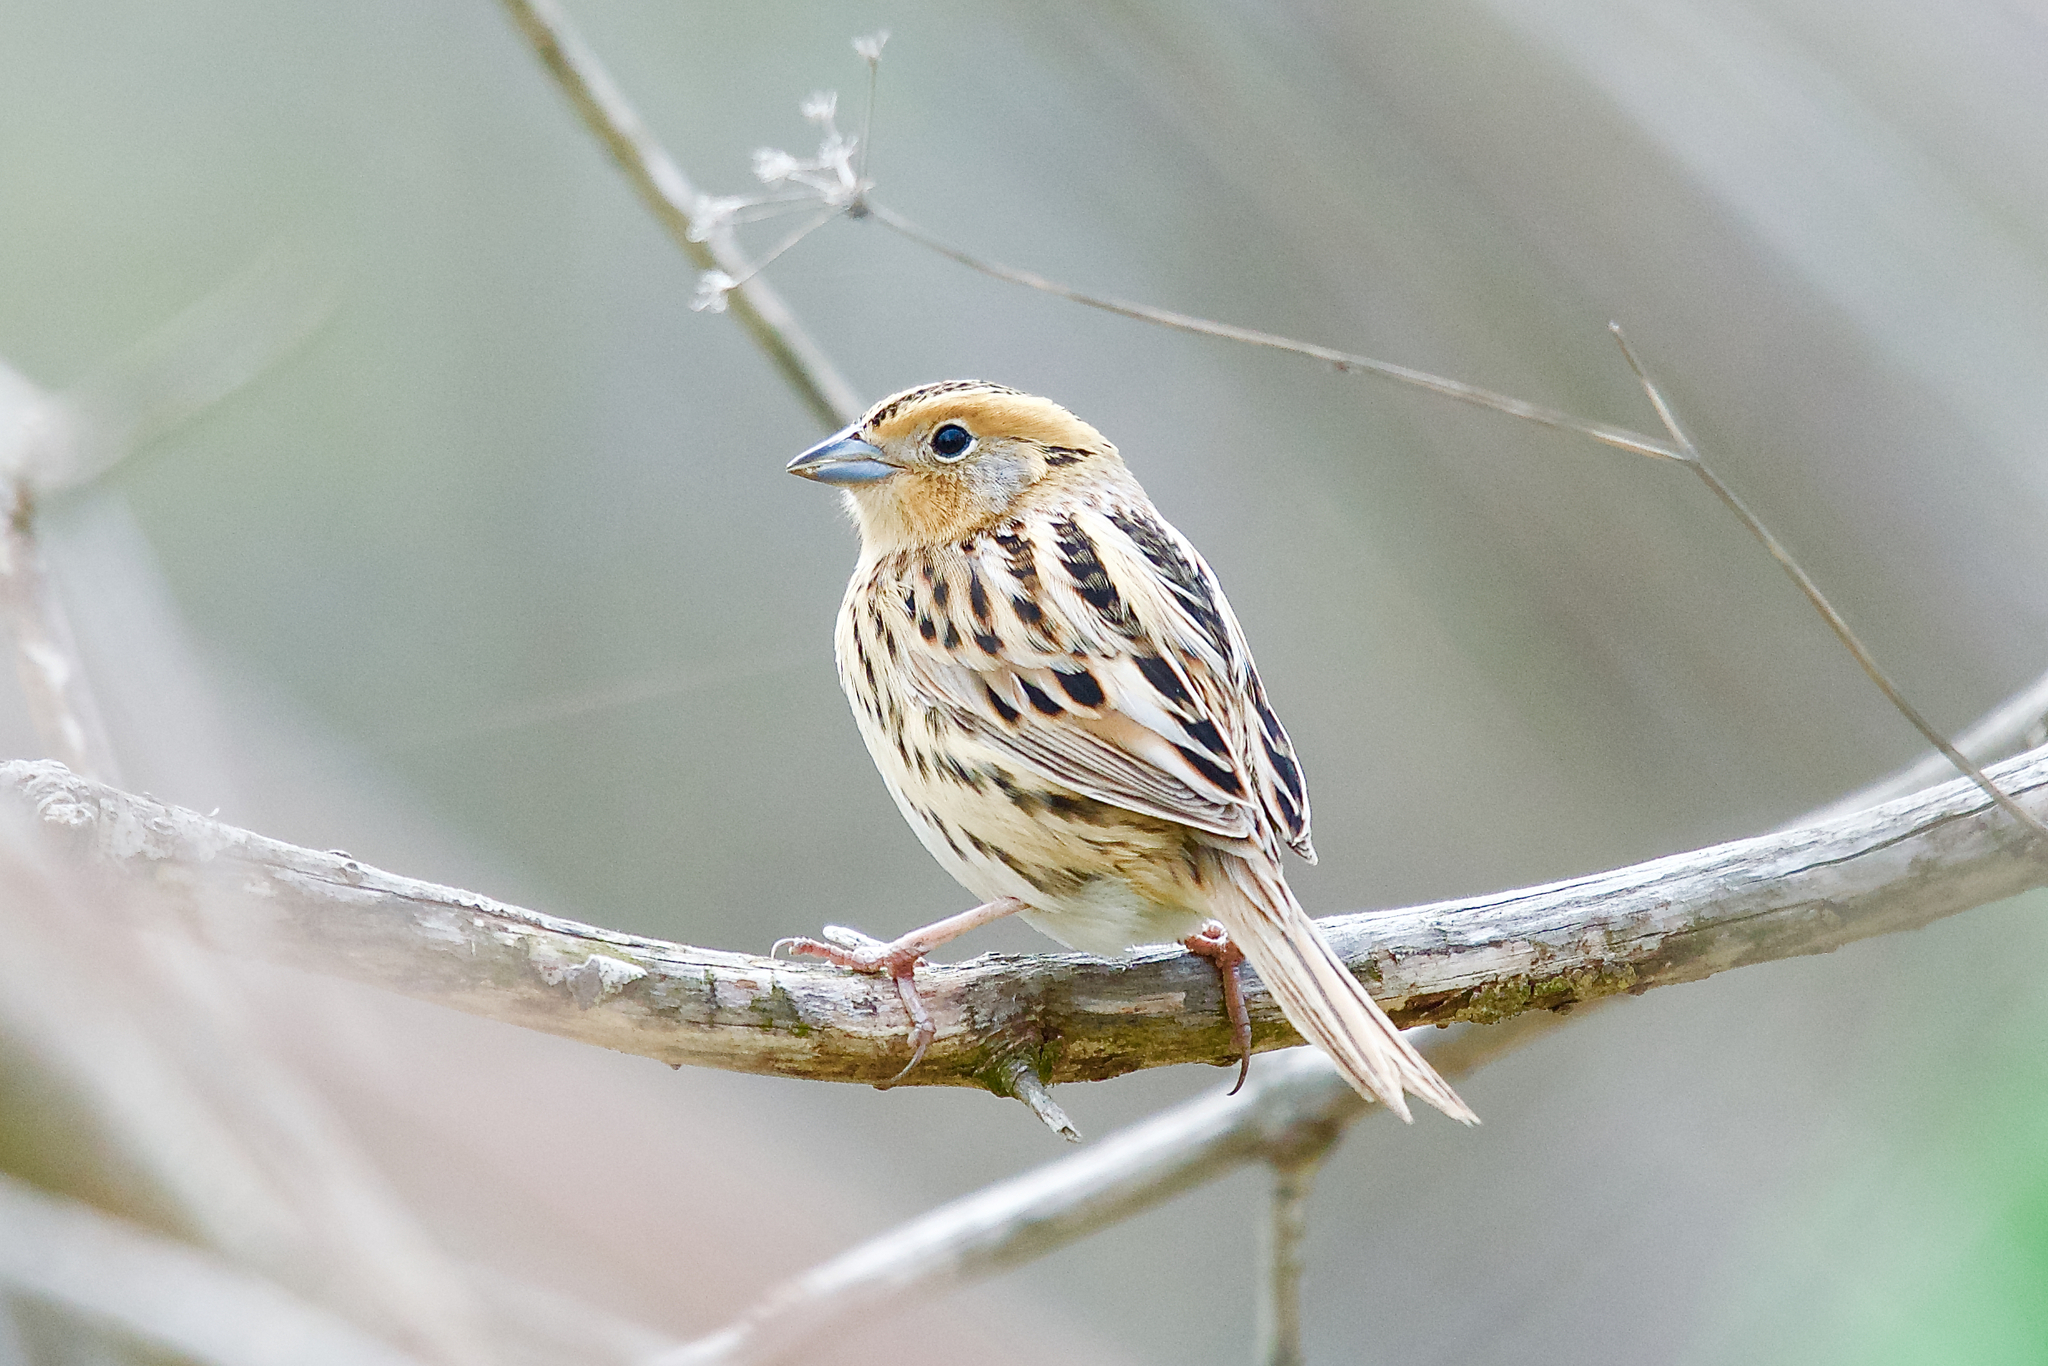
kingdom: Animalia
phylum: Chordata
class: Aves
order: Passeriformes
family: Passerellidae
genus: Ammospiza
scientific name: Ammospiza leconteii
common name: Le conte's sparrow
